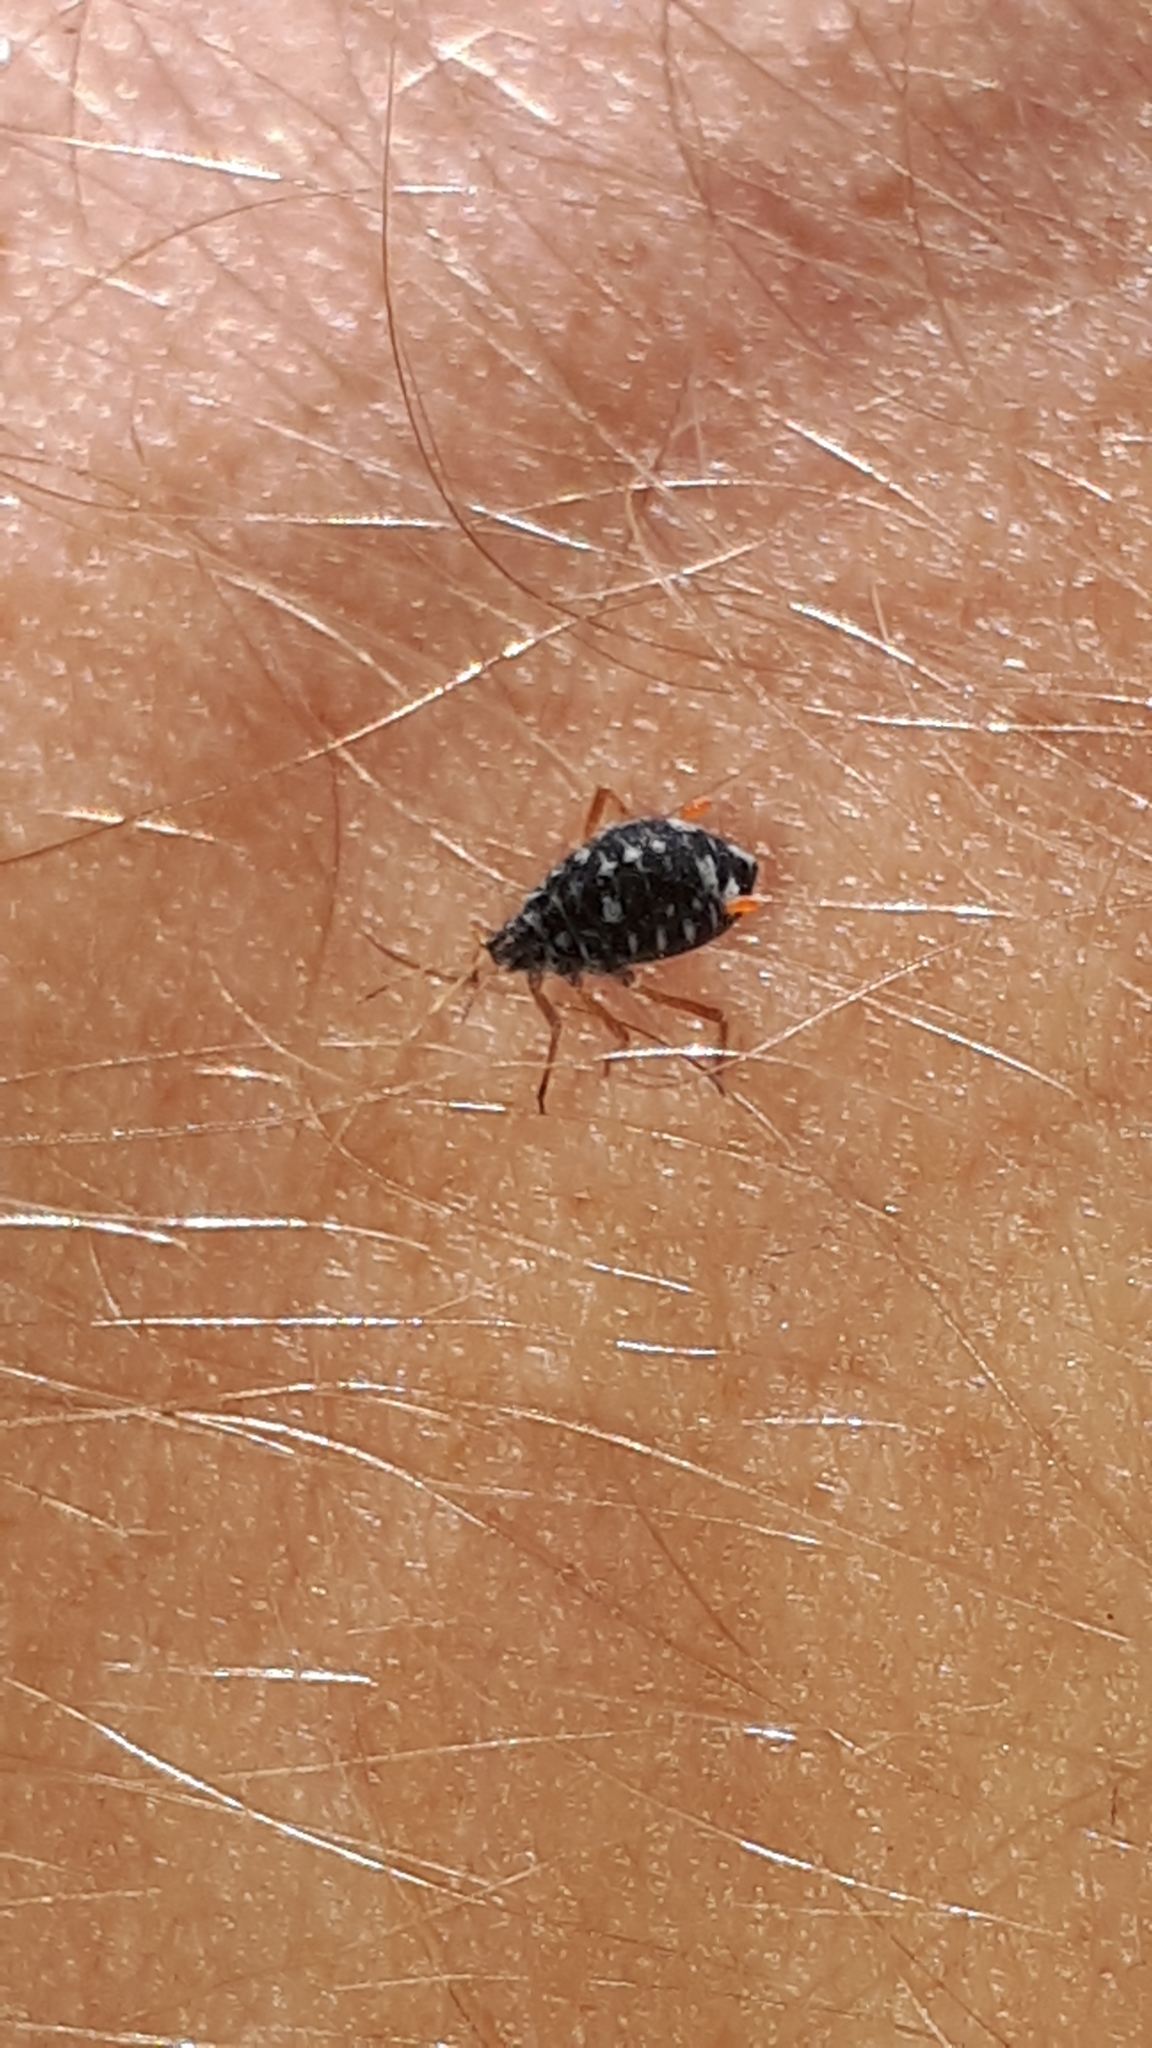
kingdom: Animalia
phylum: Arthropoda
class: Insecta
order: Hemiptera
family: Aphididae
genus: Pterocomma
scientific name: Pterocomma salicis
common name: Aphid
